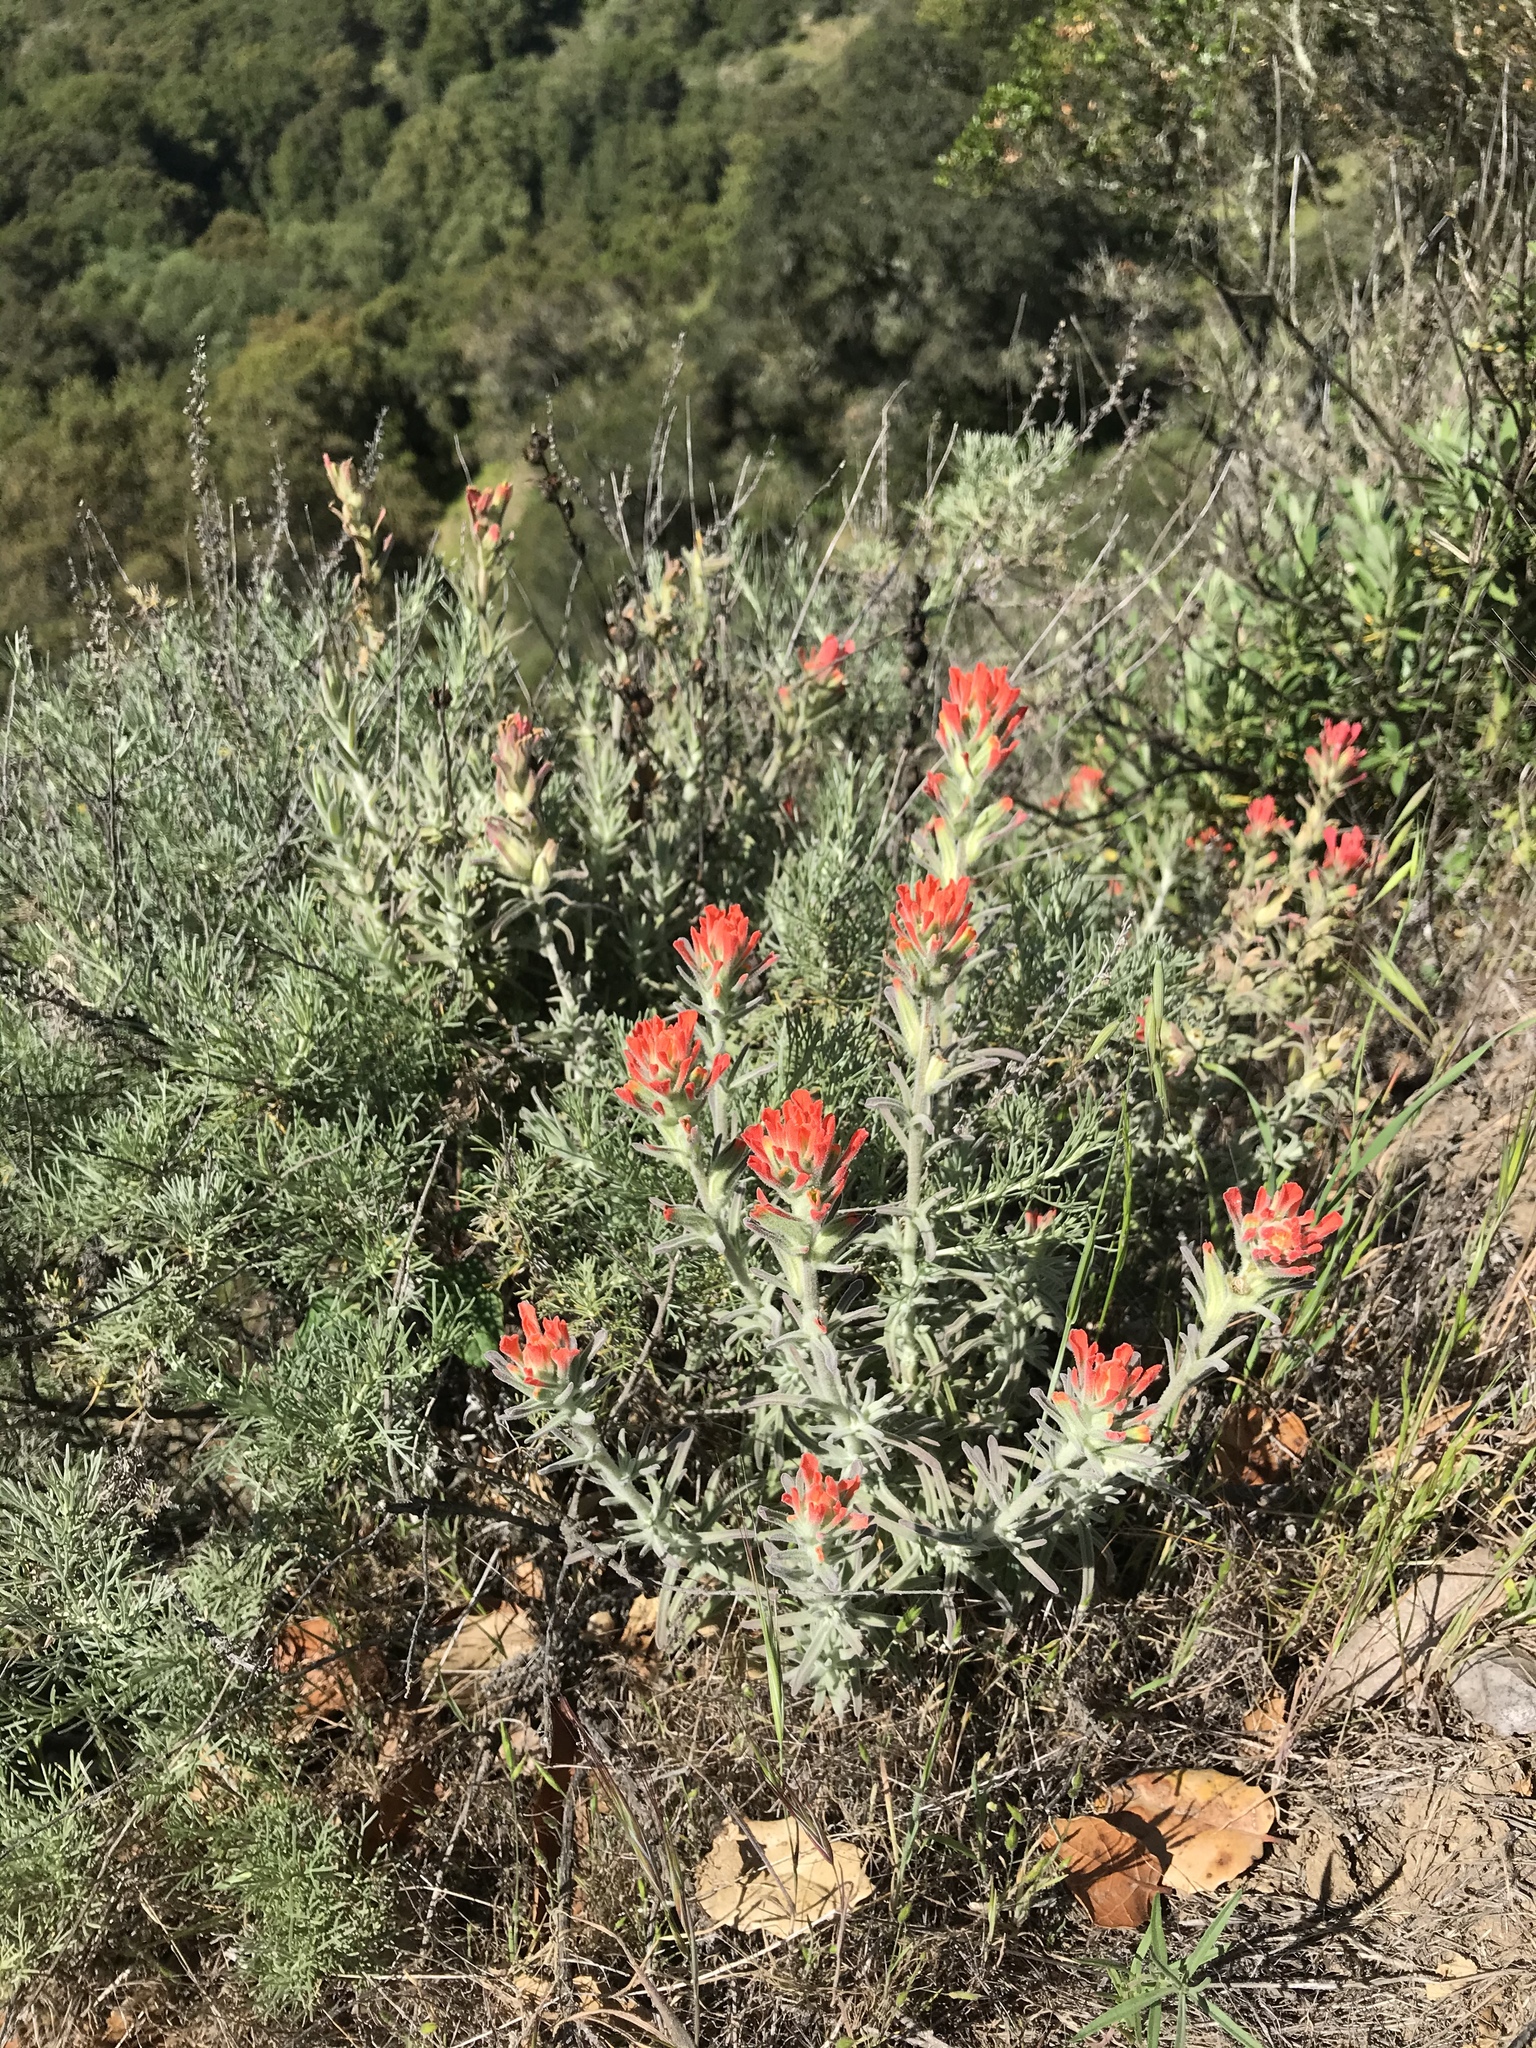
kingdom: Plantae
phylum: Tracheophyta
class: Magnoliopsida
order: Lamiales
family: Orobanchaceae
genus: Castilleja
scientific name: Castilleja foliolosa
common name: Woolly indian paintbrush
